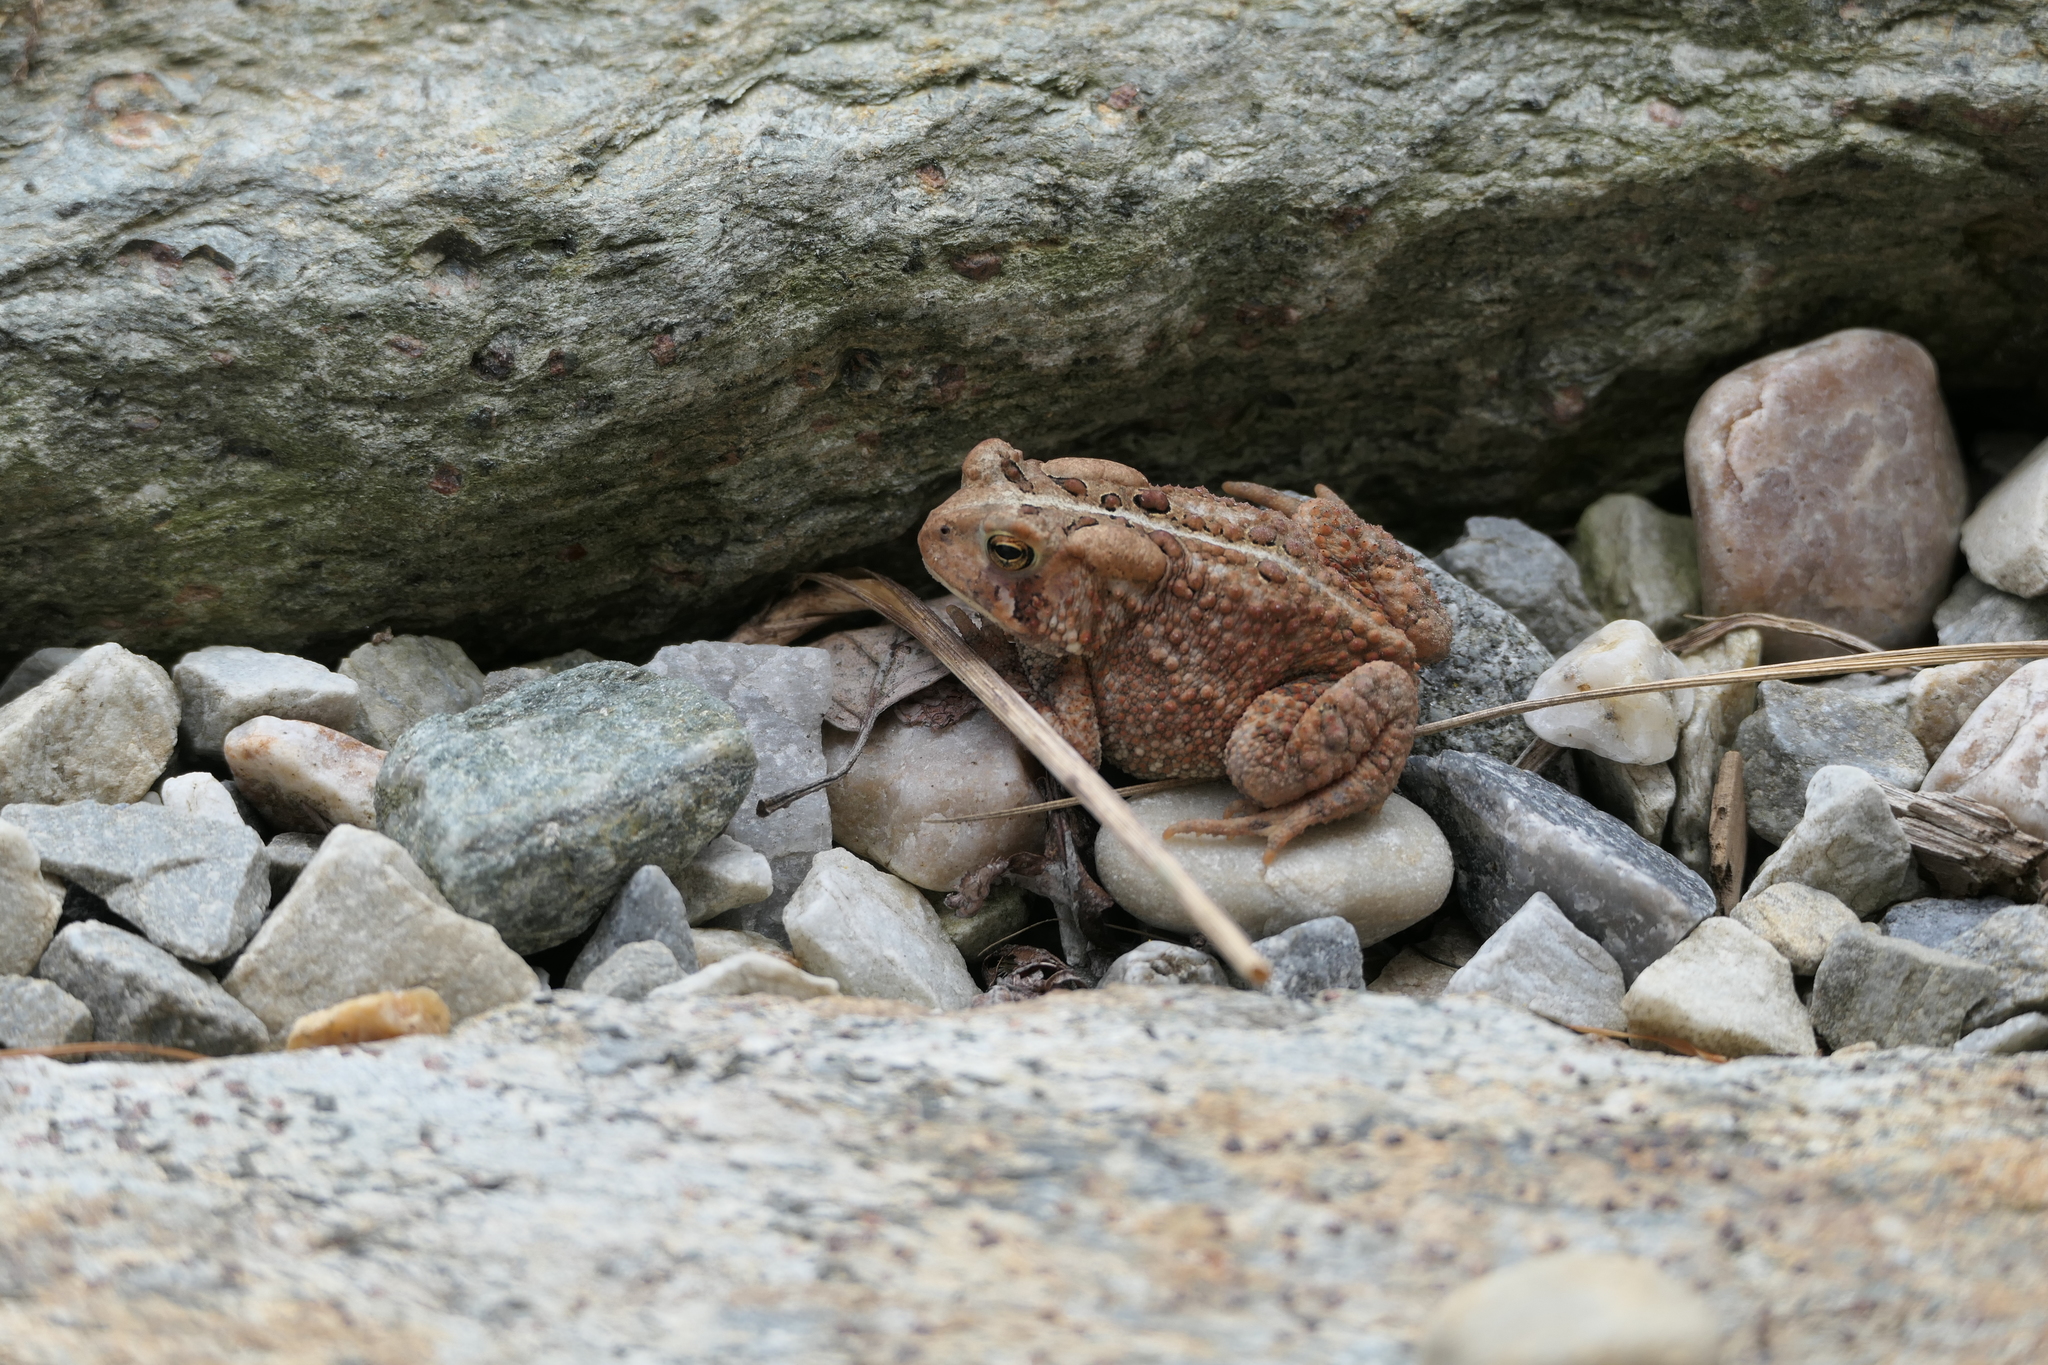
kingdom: Animalia
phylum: Chordata
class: Amphibia
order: Anura
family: Bufonidae
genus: Anaxyrus
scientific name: Anaxyrus americanus
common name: American toad
